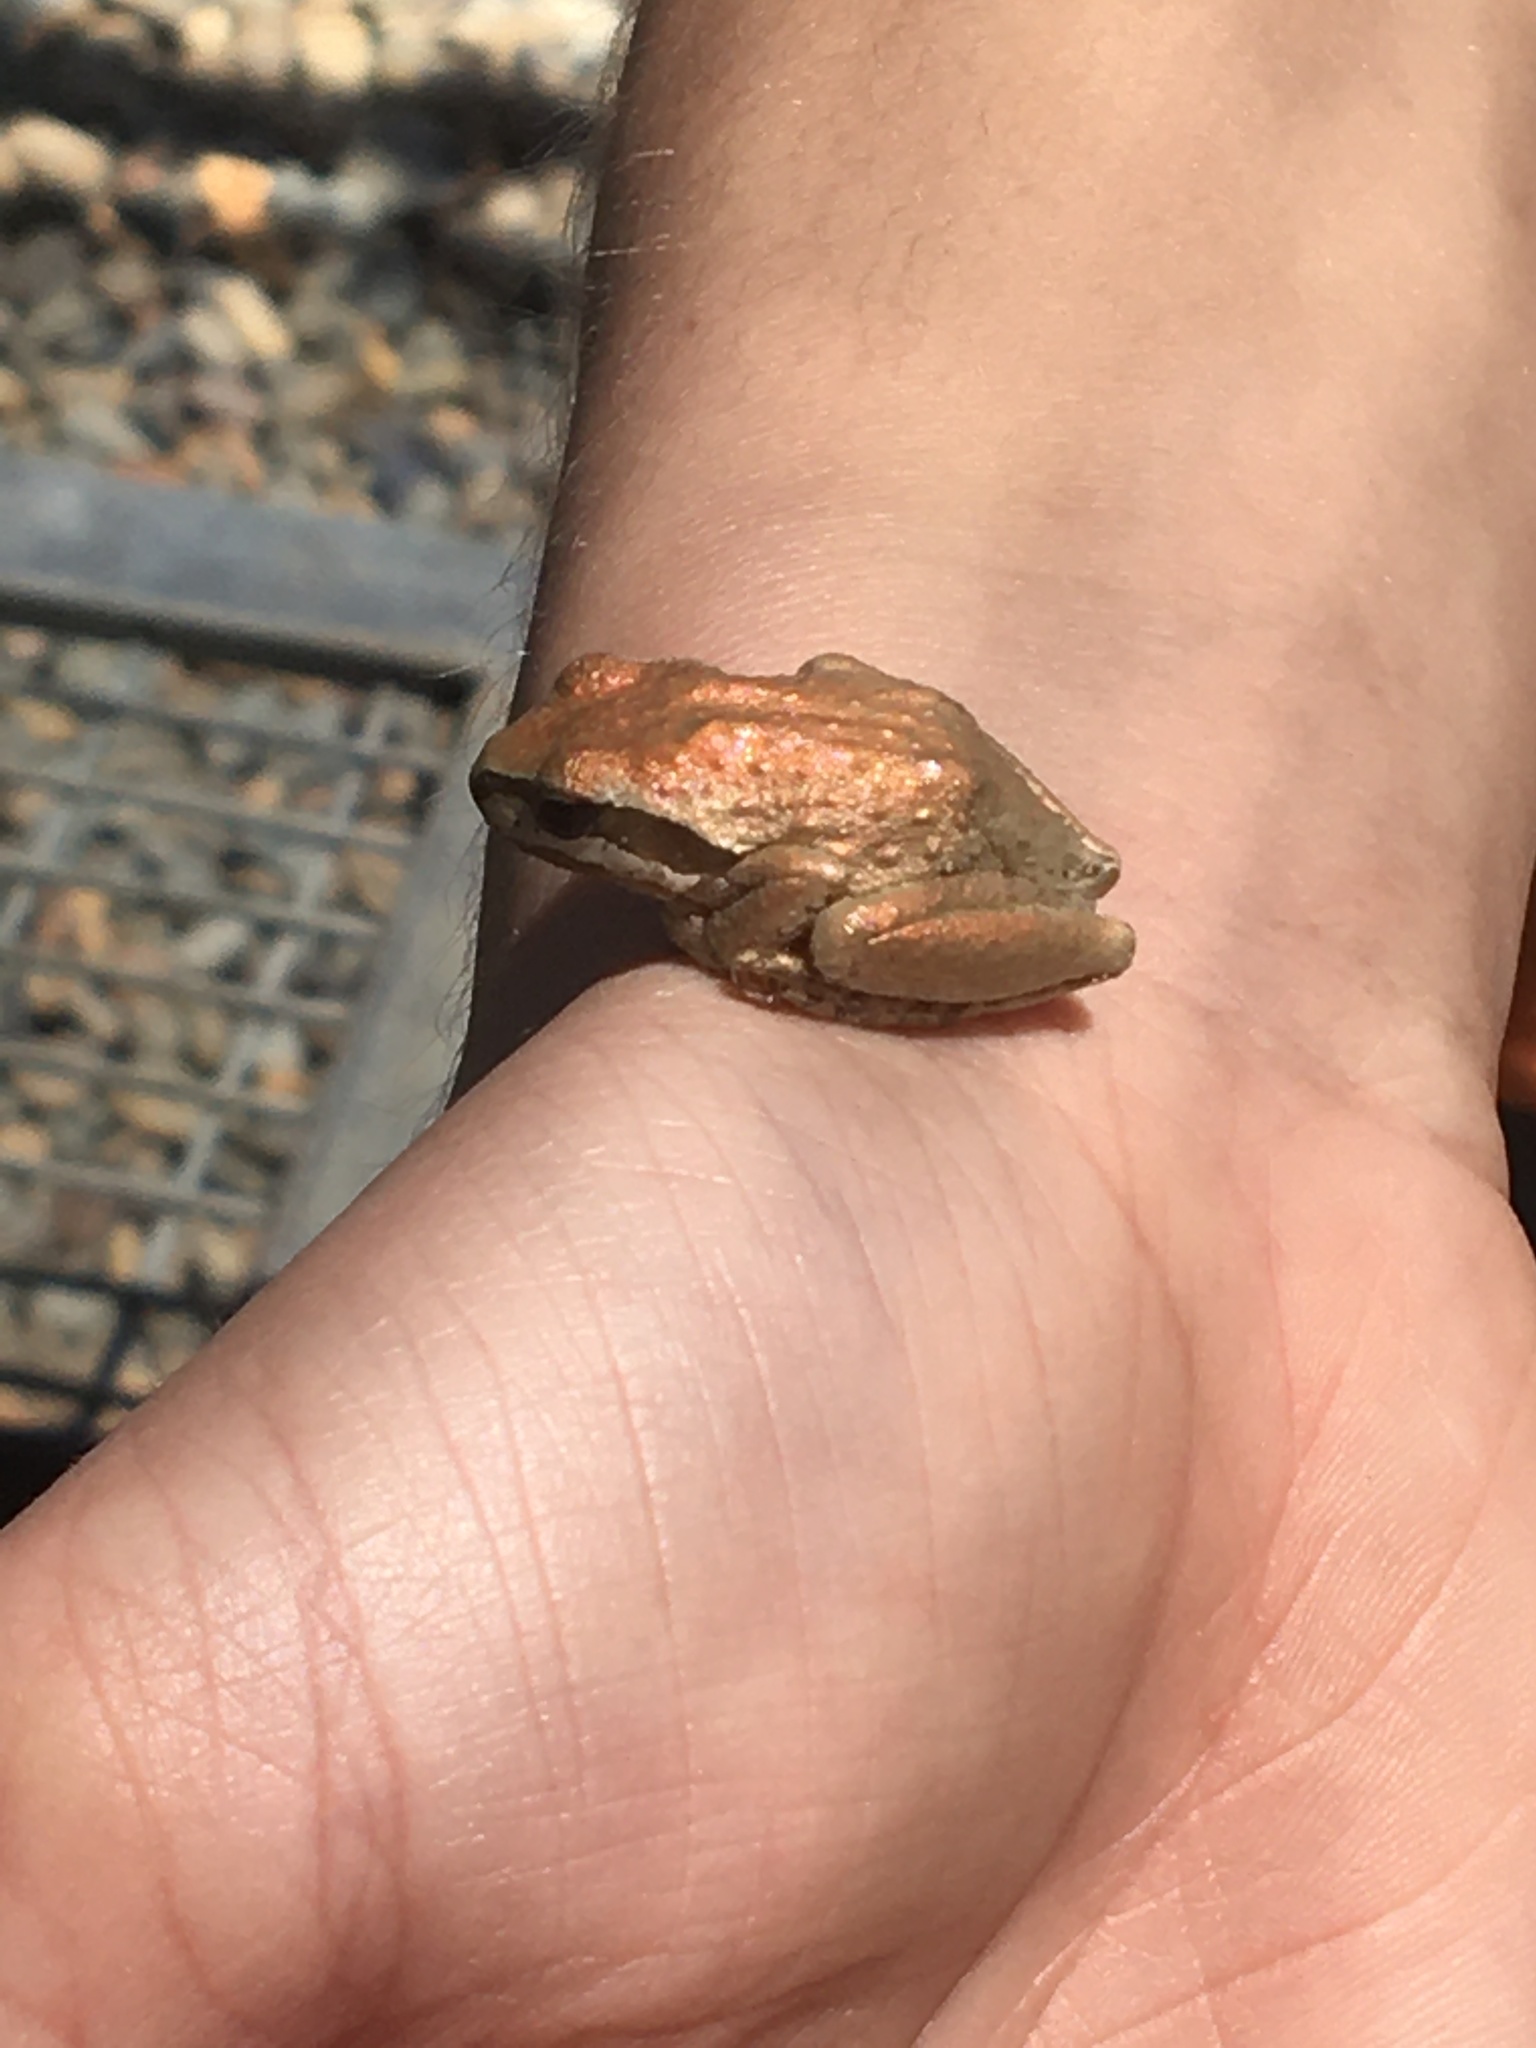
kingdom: Animalia
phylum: Chordata
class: Amphibia
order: Anura
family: Hylidae
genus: Pseudacris
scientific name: Pseudacris regilla
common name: Pacific chorus frog
